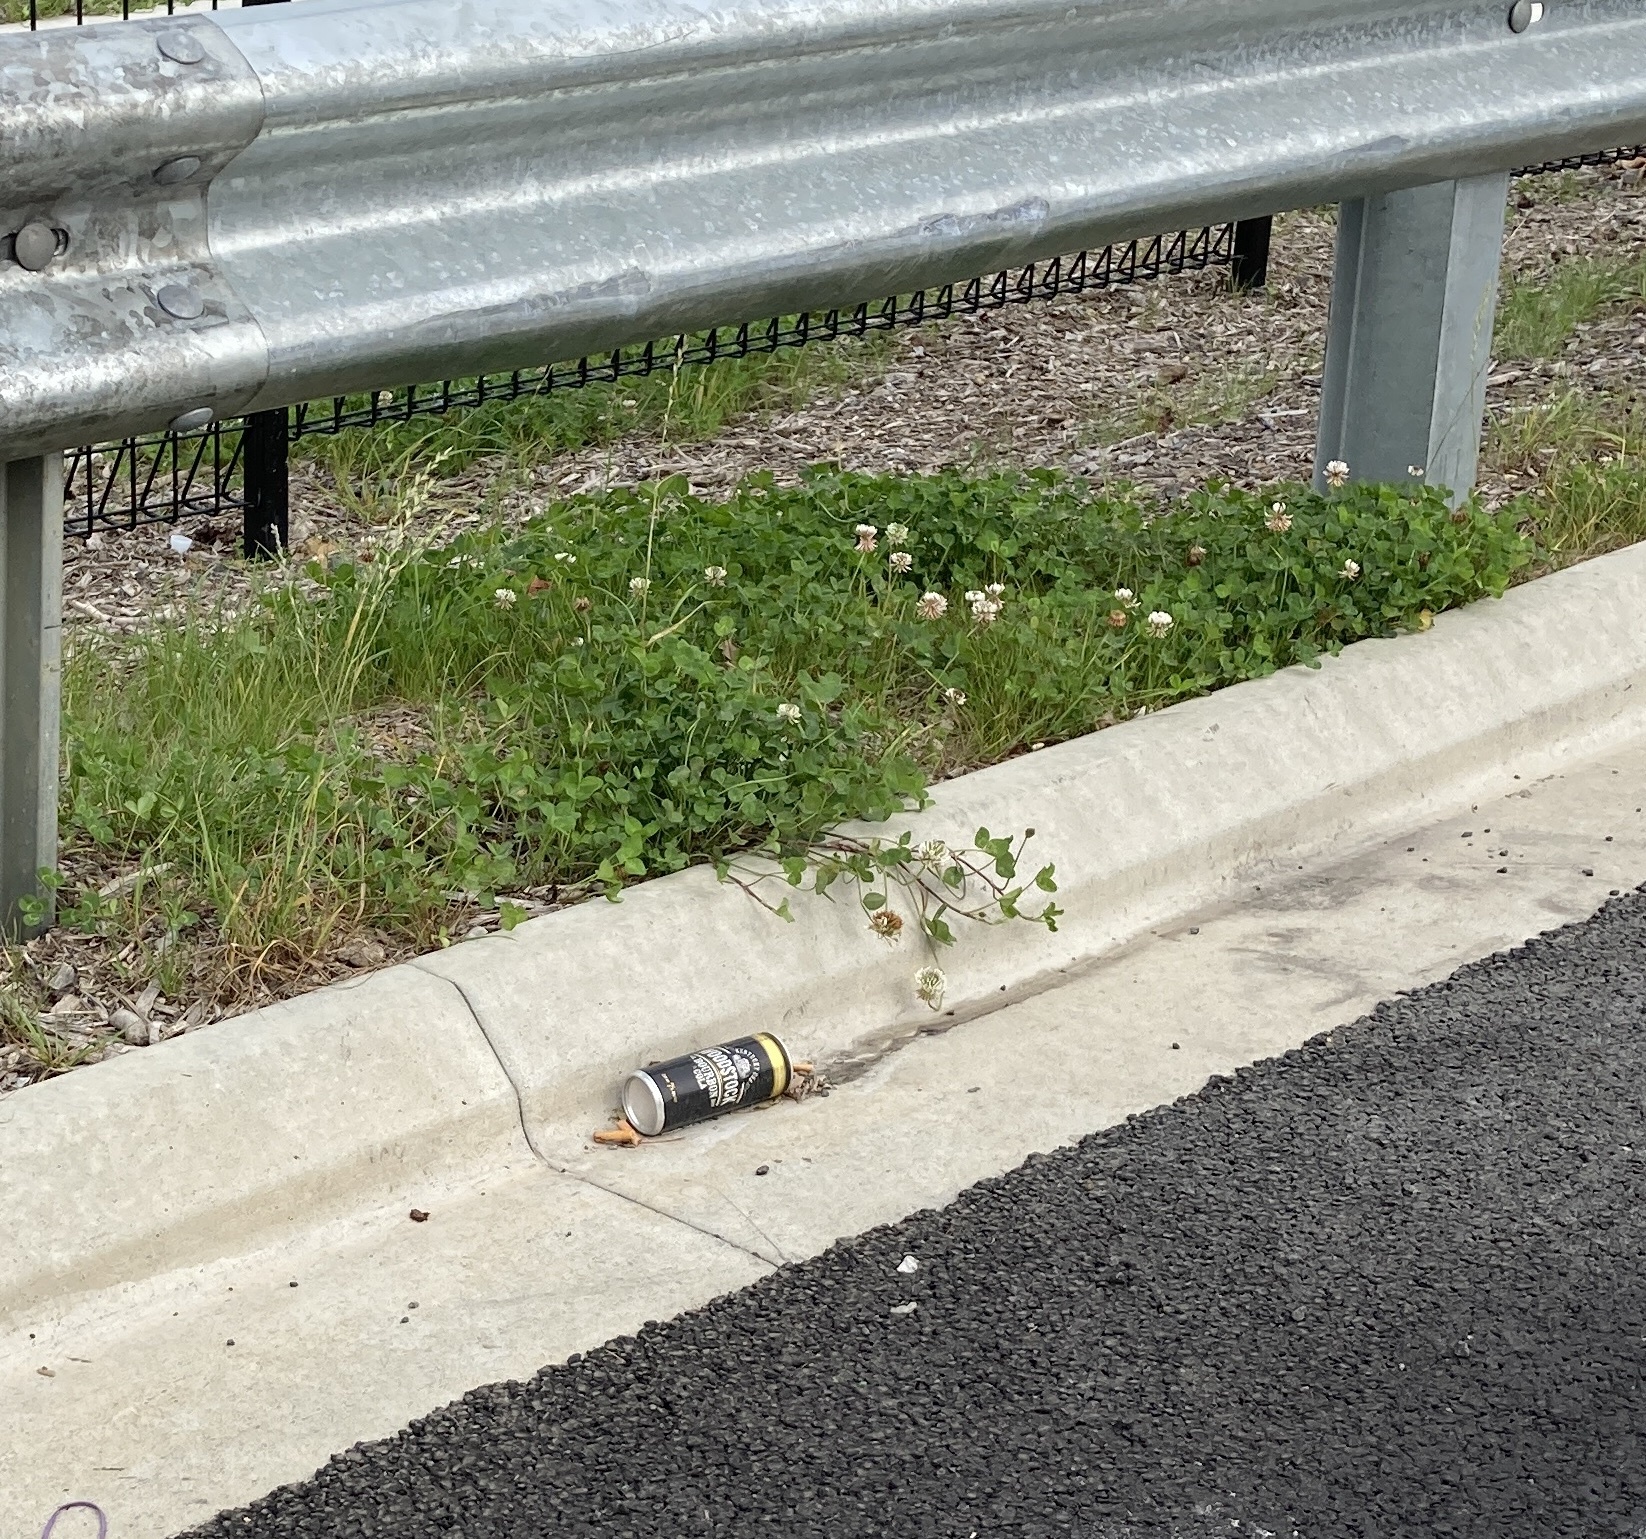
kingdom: Plantae
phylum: Tracheophyta
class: Magnoliopsida
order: Fabales
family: Fabaceae
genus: Trifolium
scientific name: Trifolium repens
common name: White clover
